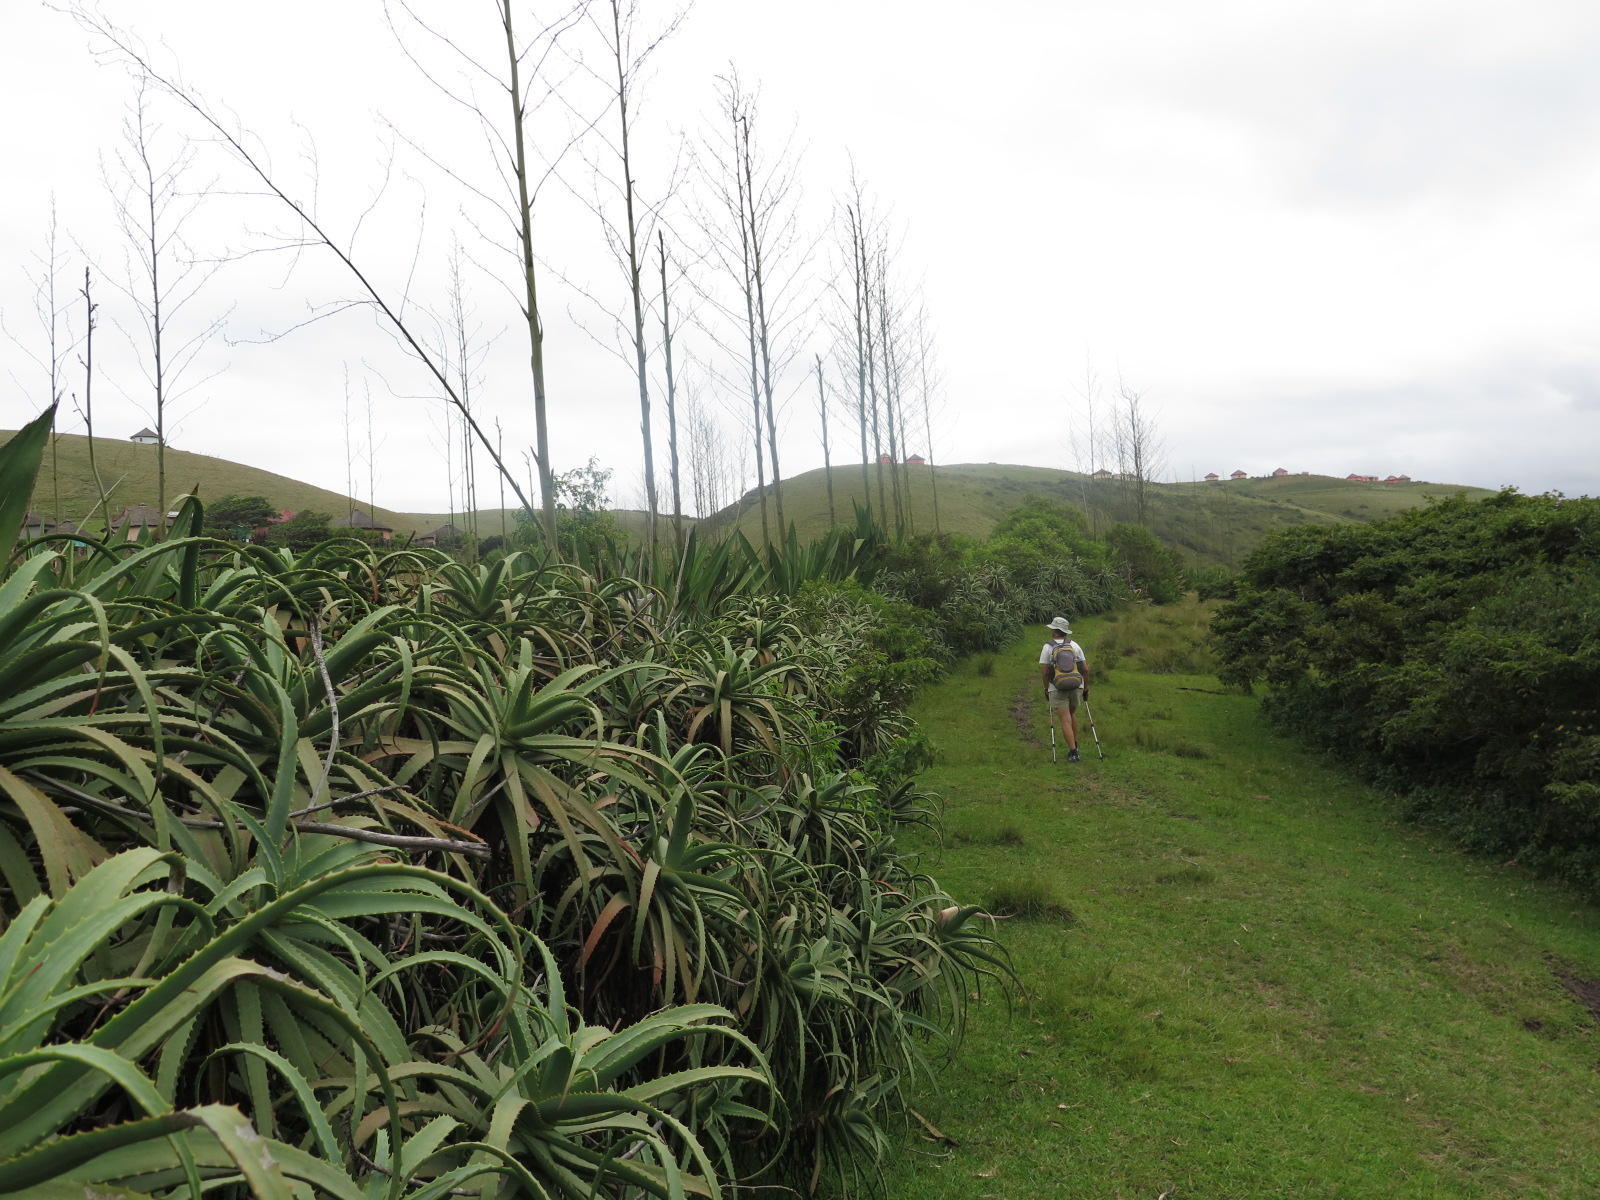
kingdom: Plantae
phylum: Tracheophyta
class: Liliopsida
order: Asparagales
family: Asparagaceae
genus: Furcraea
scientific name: Furcraea foetida
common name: Mauritius hemp
